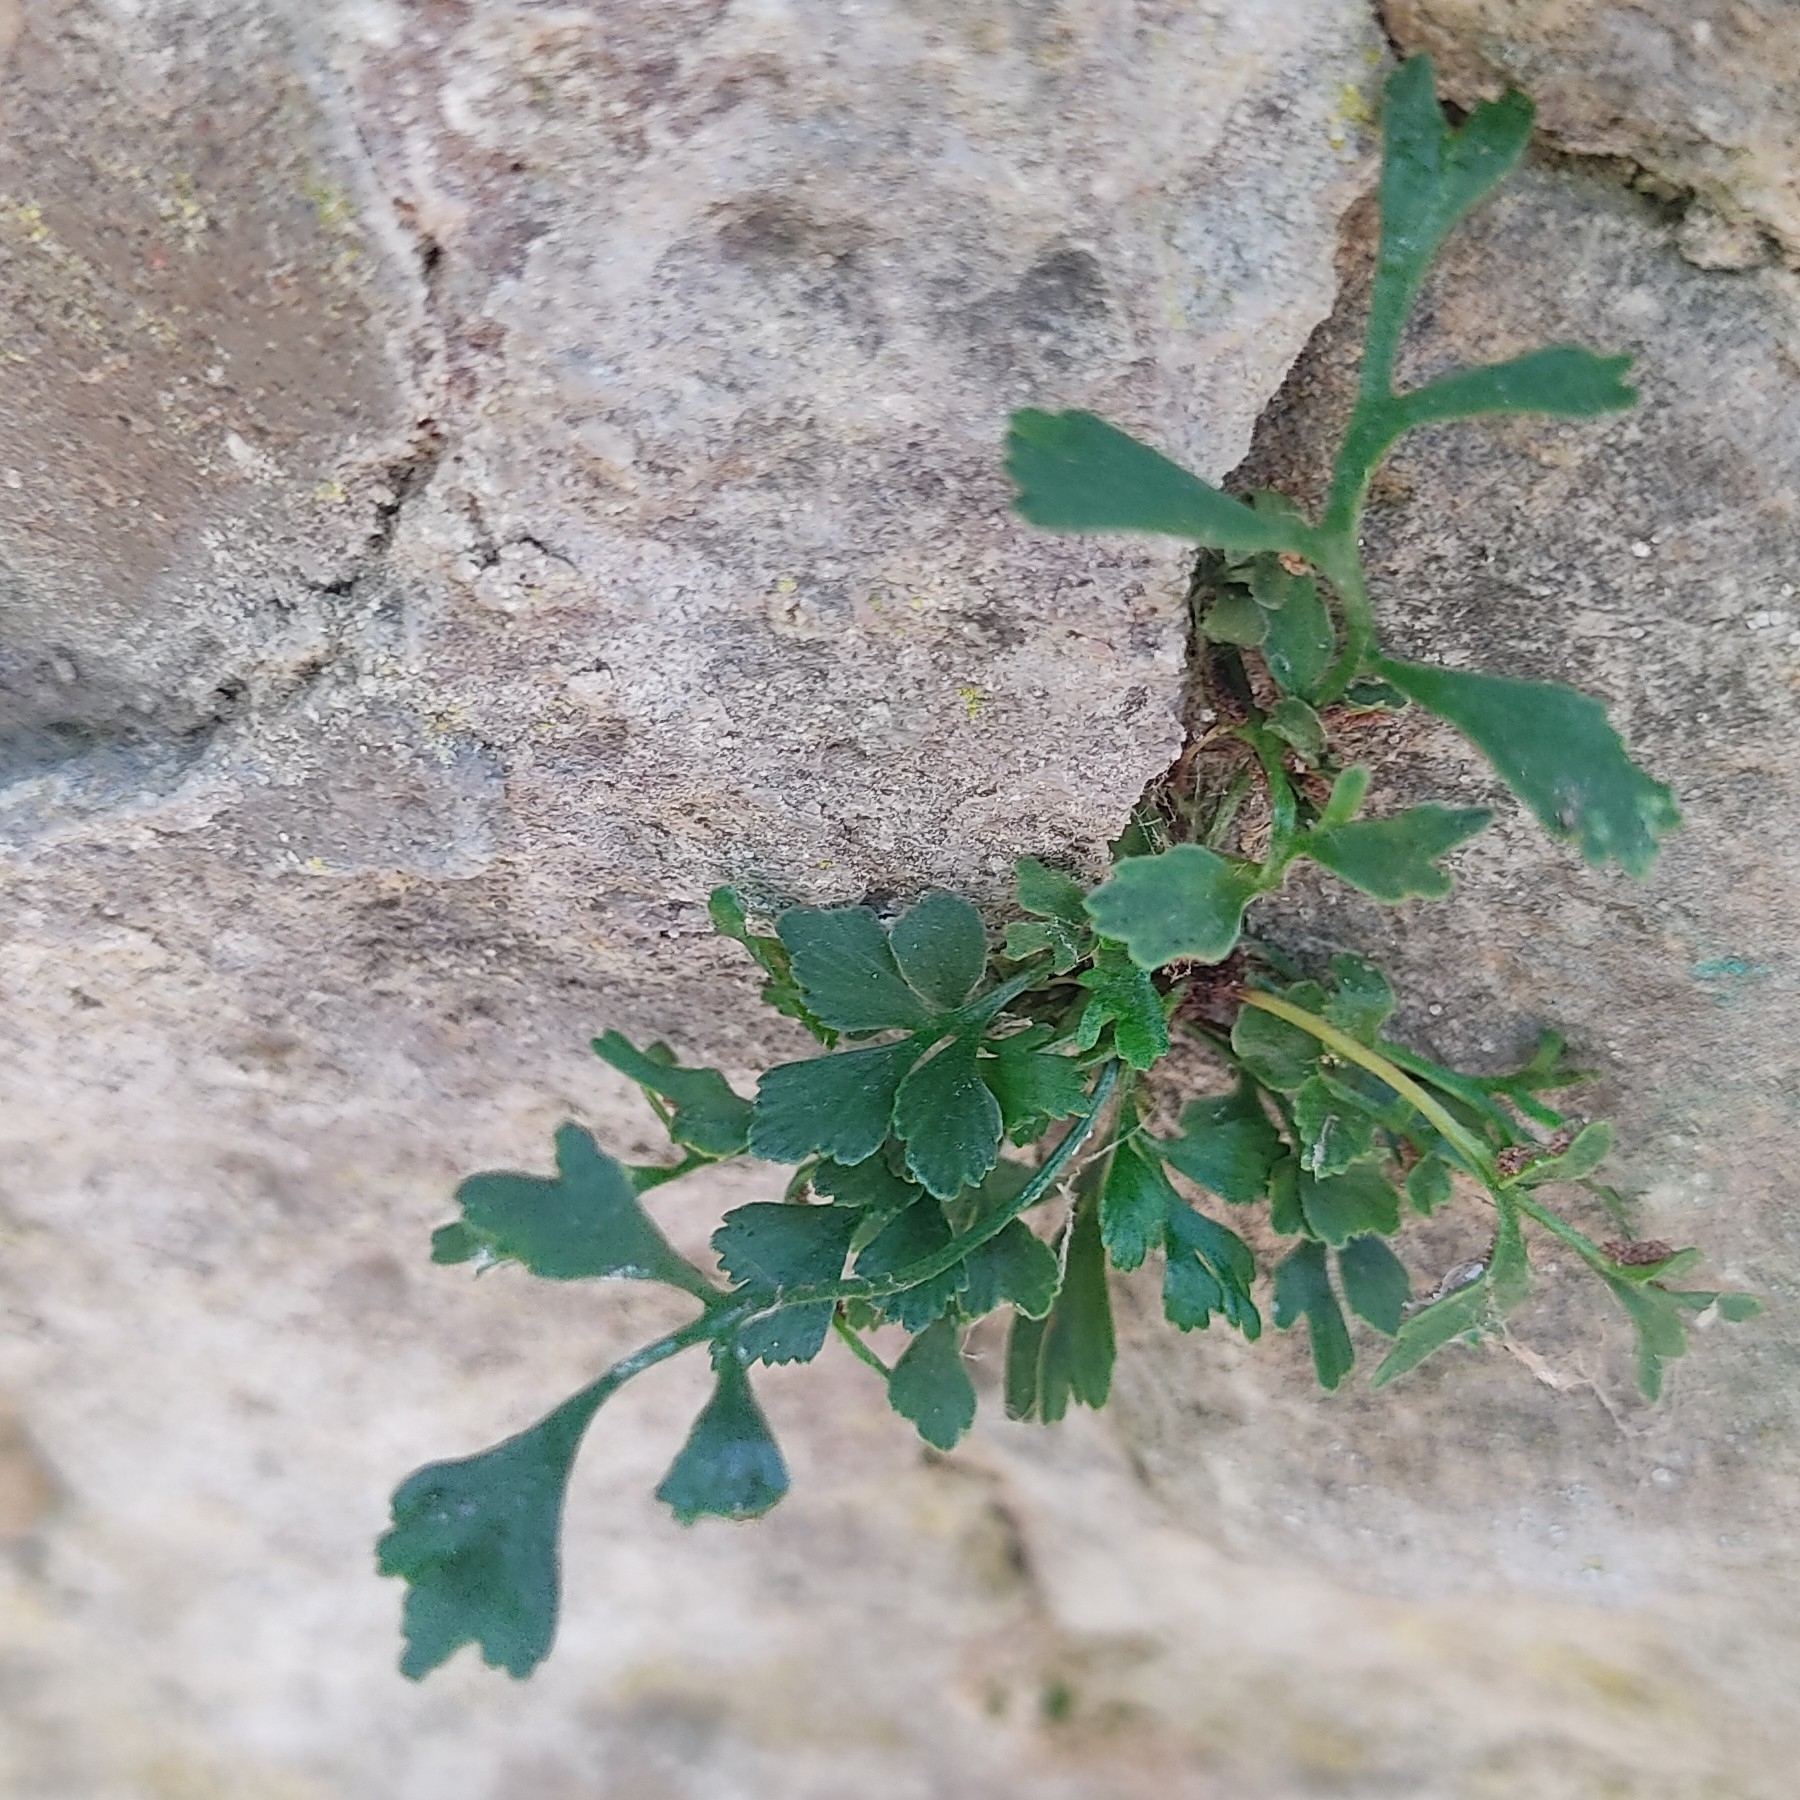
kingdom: Plantae
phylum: Tracheophyta
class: Polypodiopsida
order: Polypodiales
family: Aspleniaceae
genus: Asplenium
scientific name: Asplenium ruta-muraria
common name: Wall-rue
